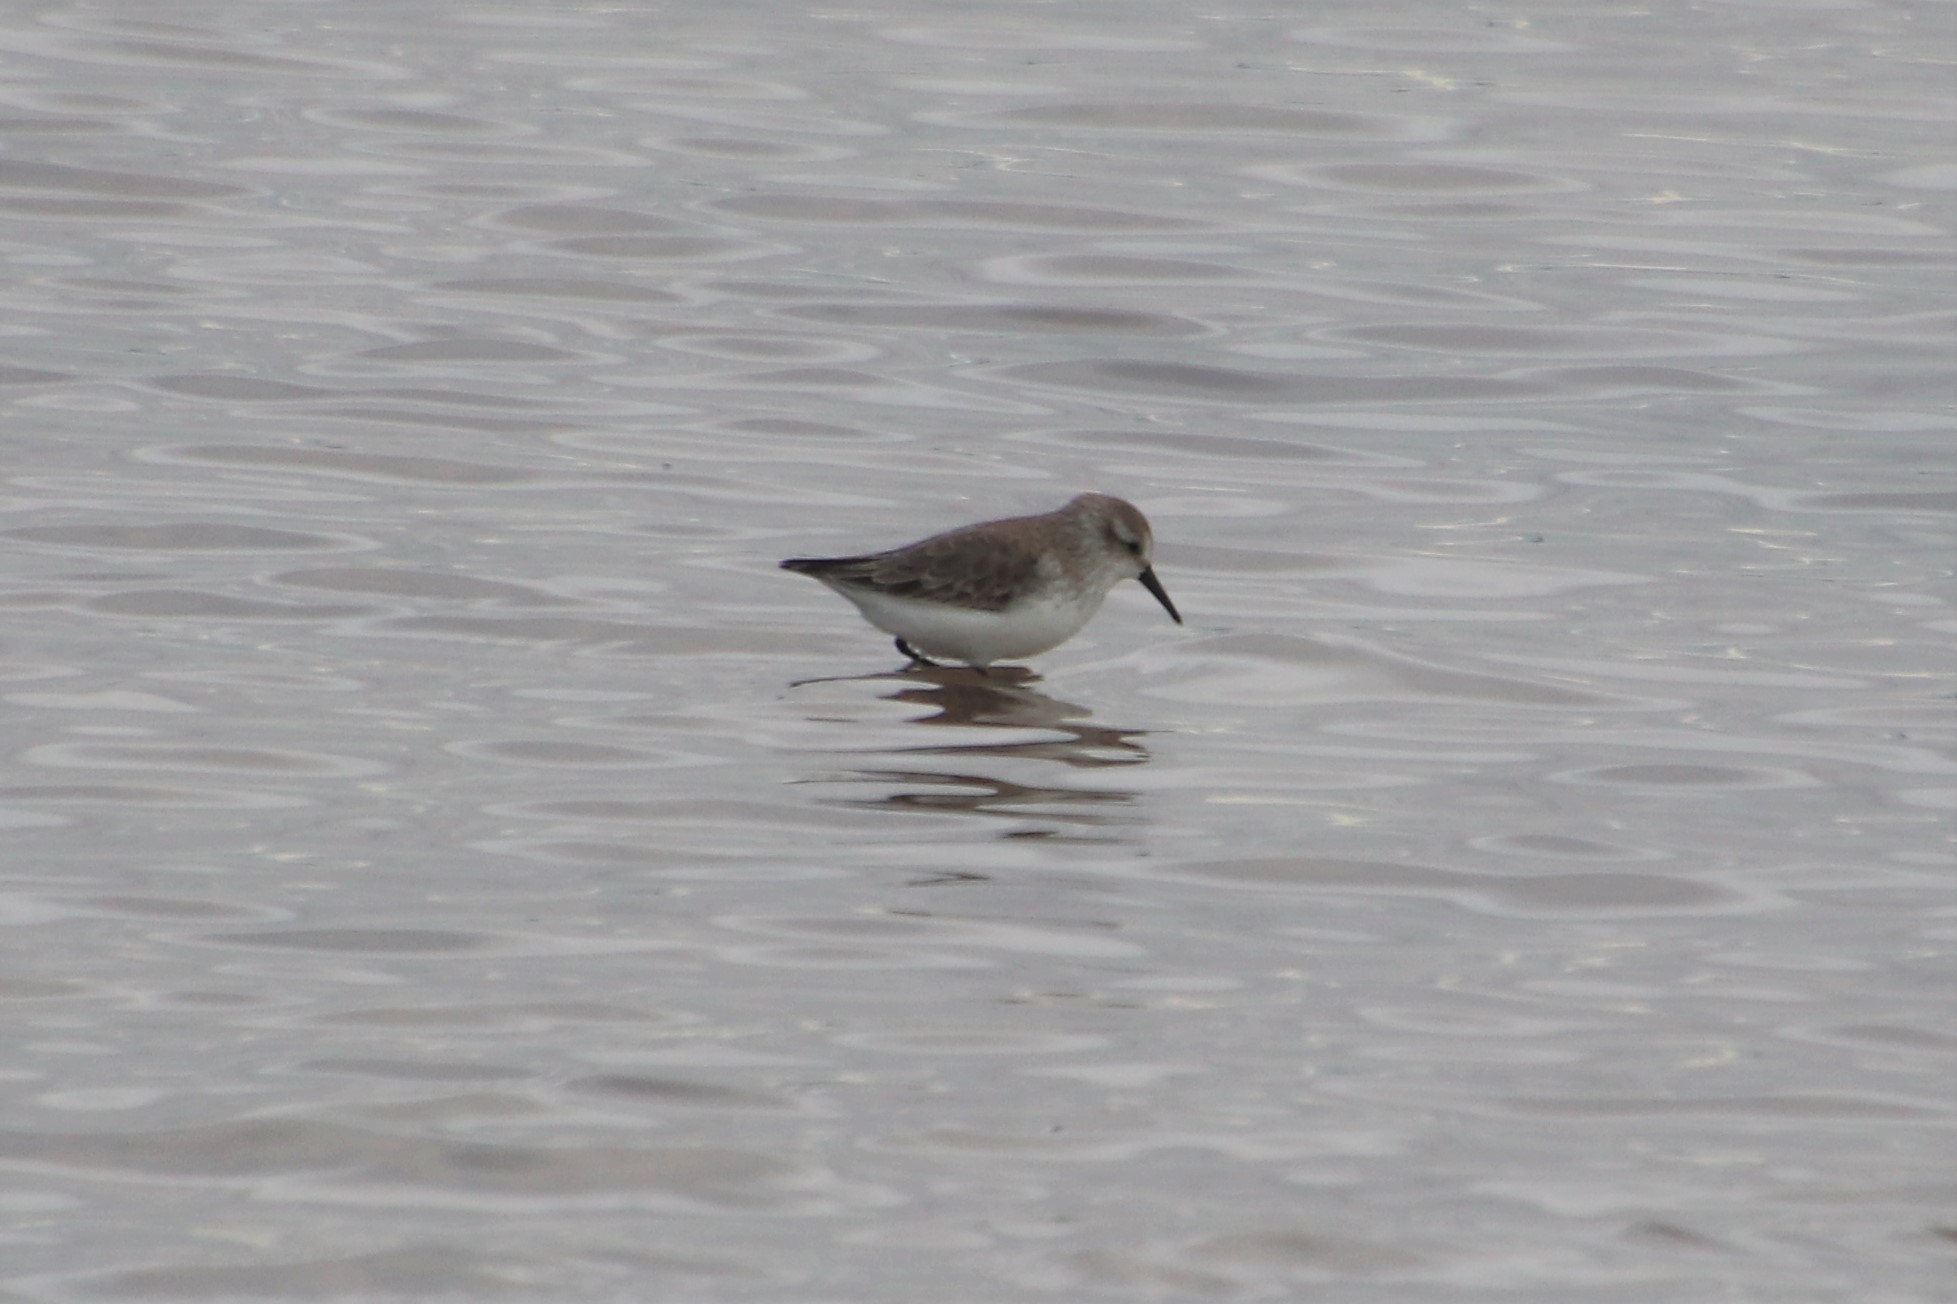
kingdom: Animalia
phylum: Chordata
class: Aves
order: Charadriiformes
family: Scolopacidae
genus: Calidris
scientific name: Calidris minuta
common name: Little stint
